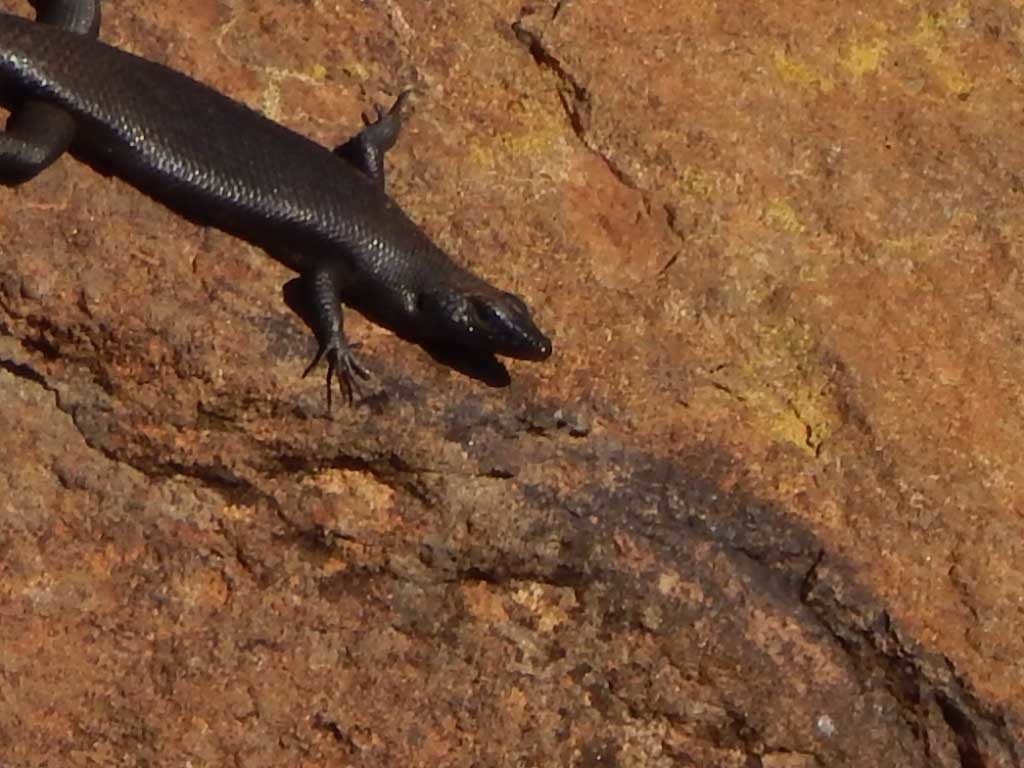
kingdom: Animalia
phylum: Chordata
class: Squamata
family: Scincidae
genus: Trachylepis
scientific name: Trachylepis sulcata
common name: Western rock skink
